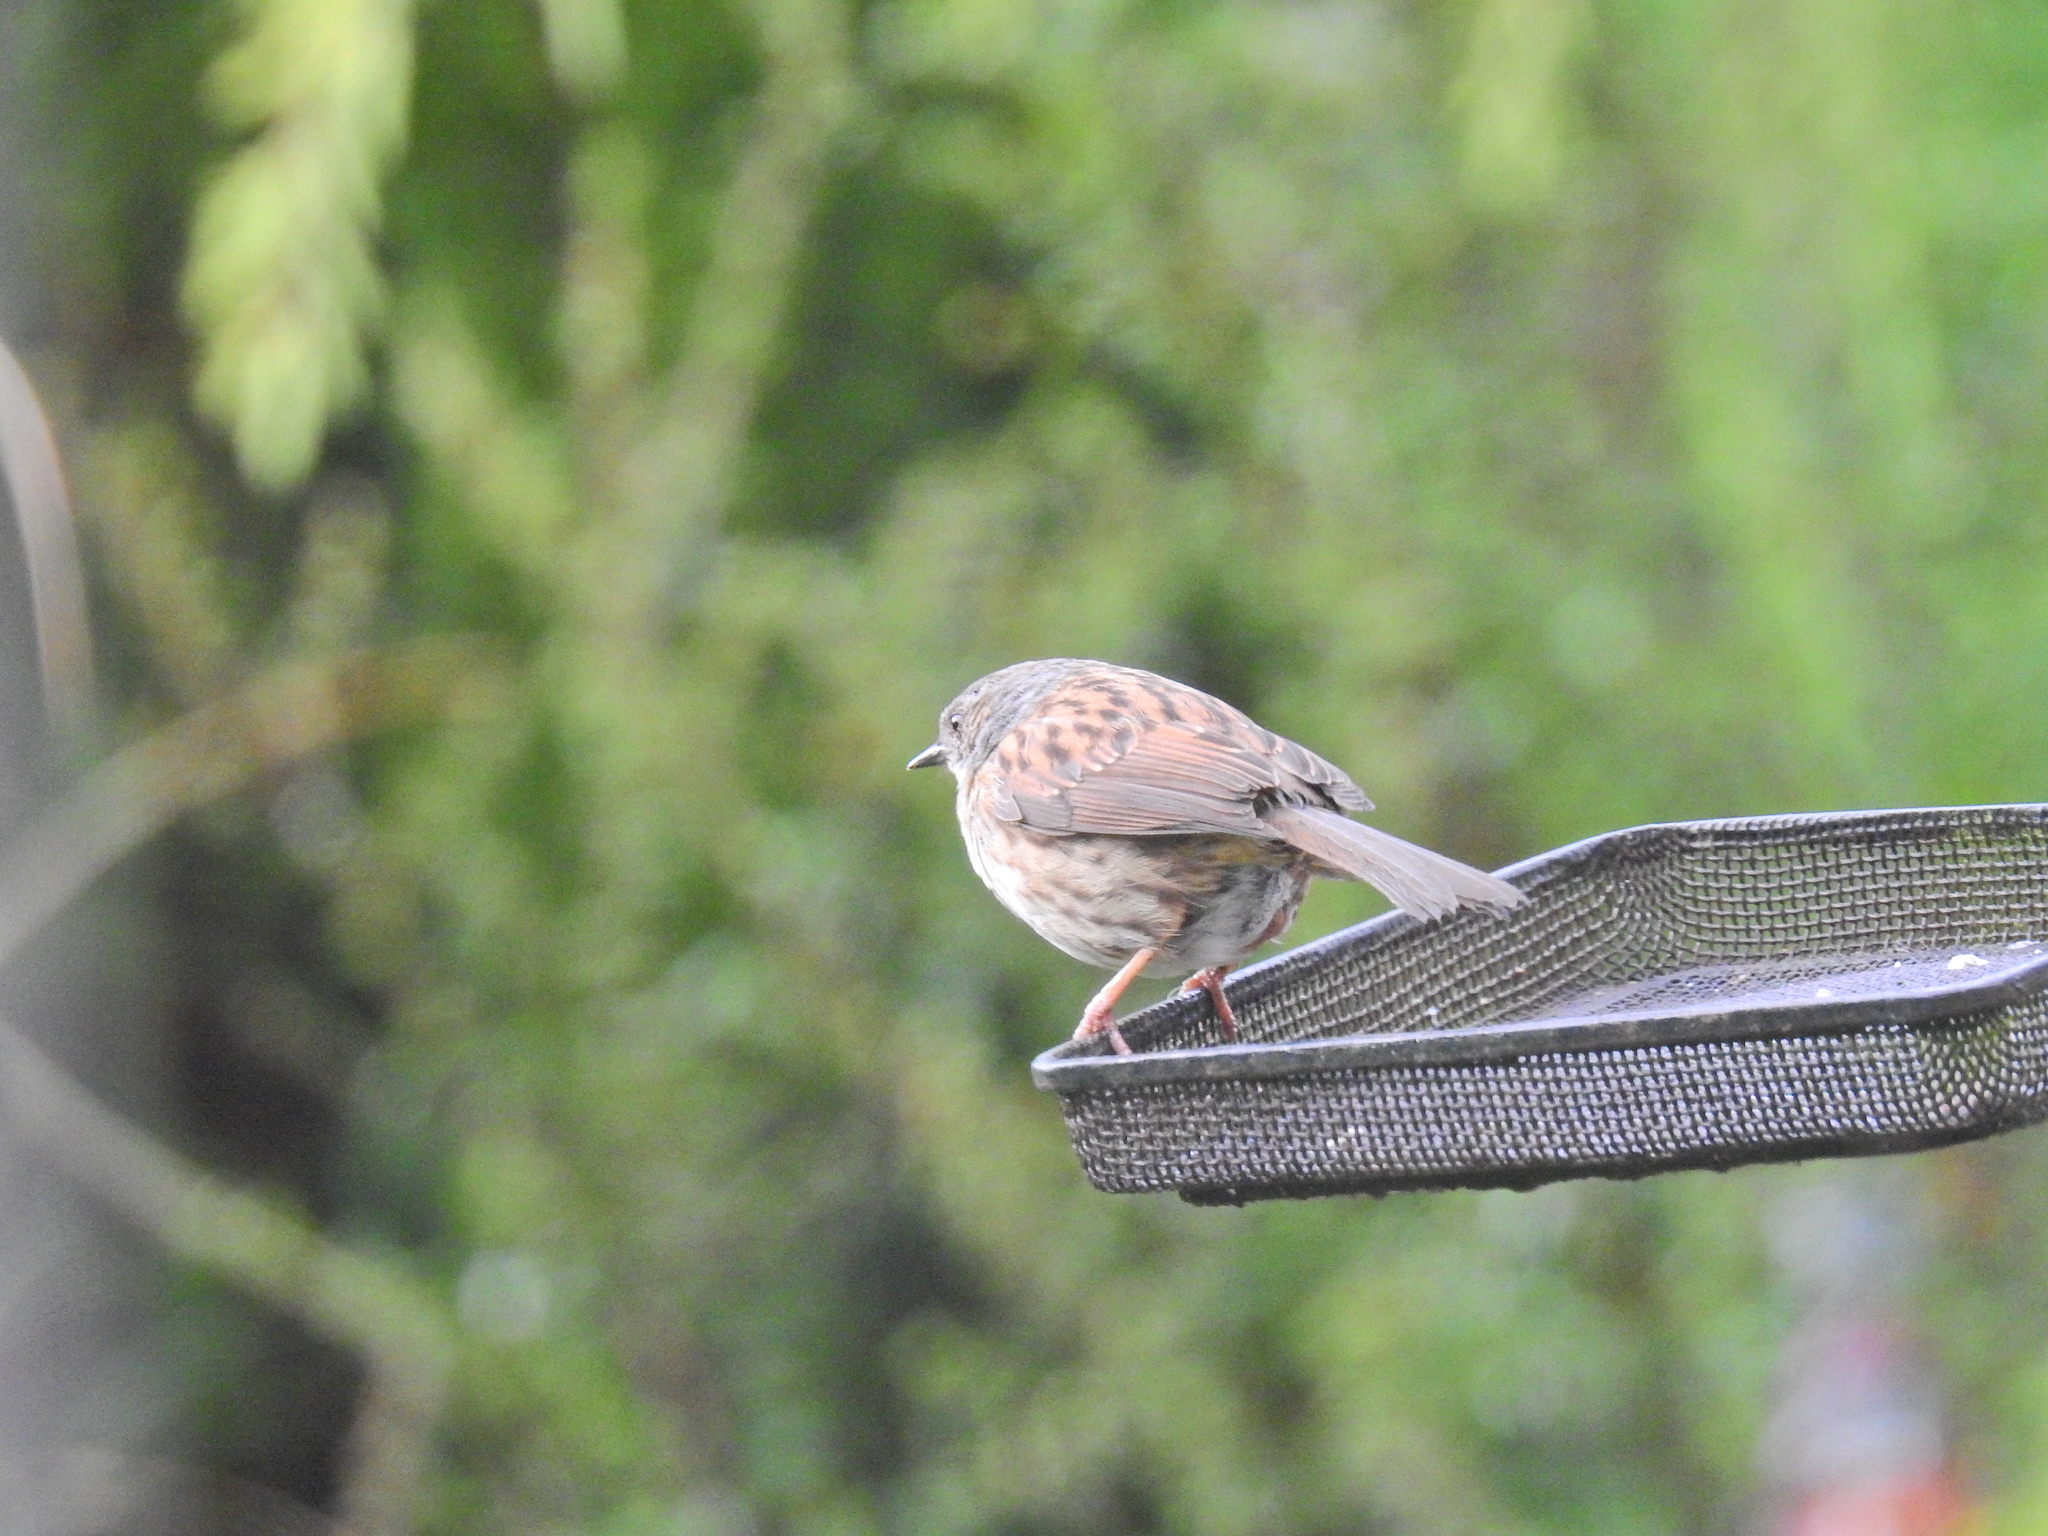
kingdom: Animalia
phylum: Chordata
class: Aves
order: Passeriformes
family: Prunellidae
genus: Prunella
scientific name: Prunella modularis
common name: Dunnock
